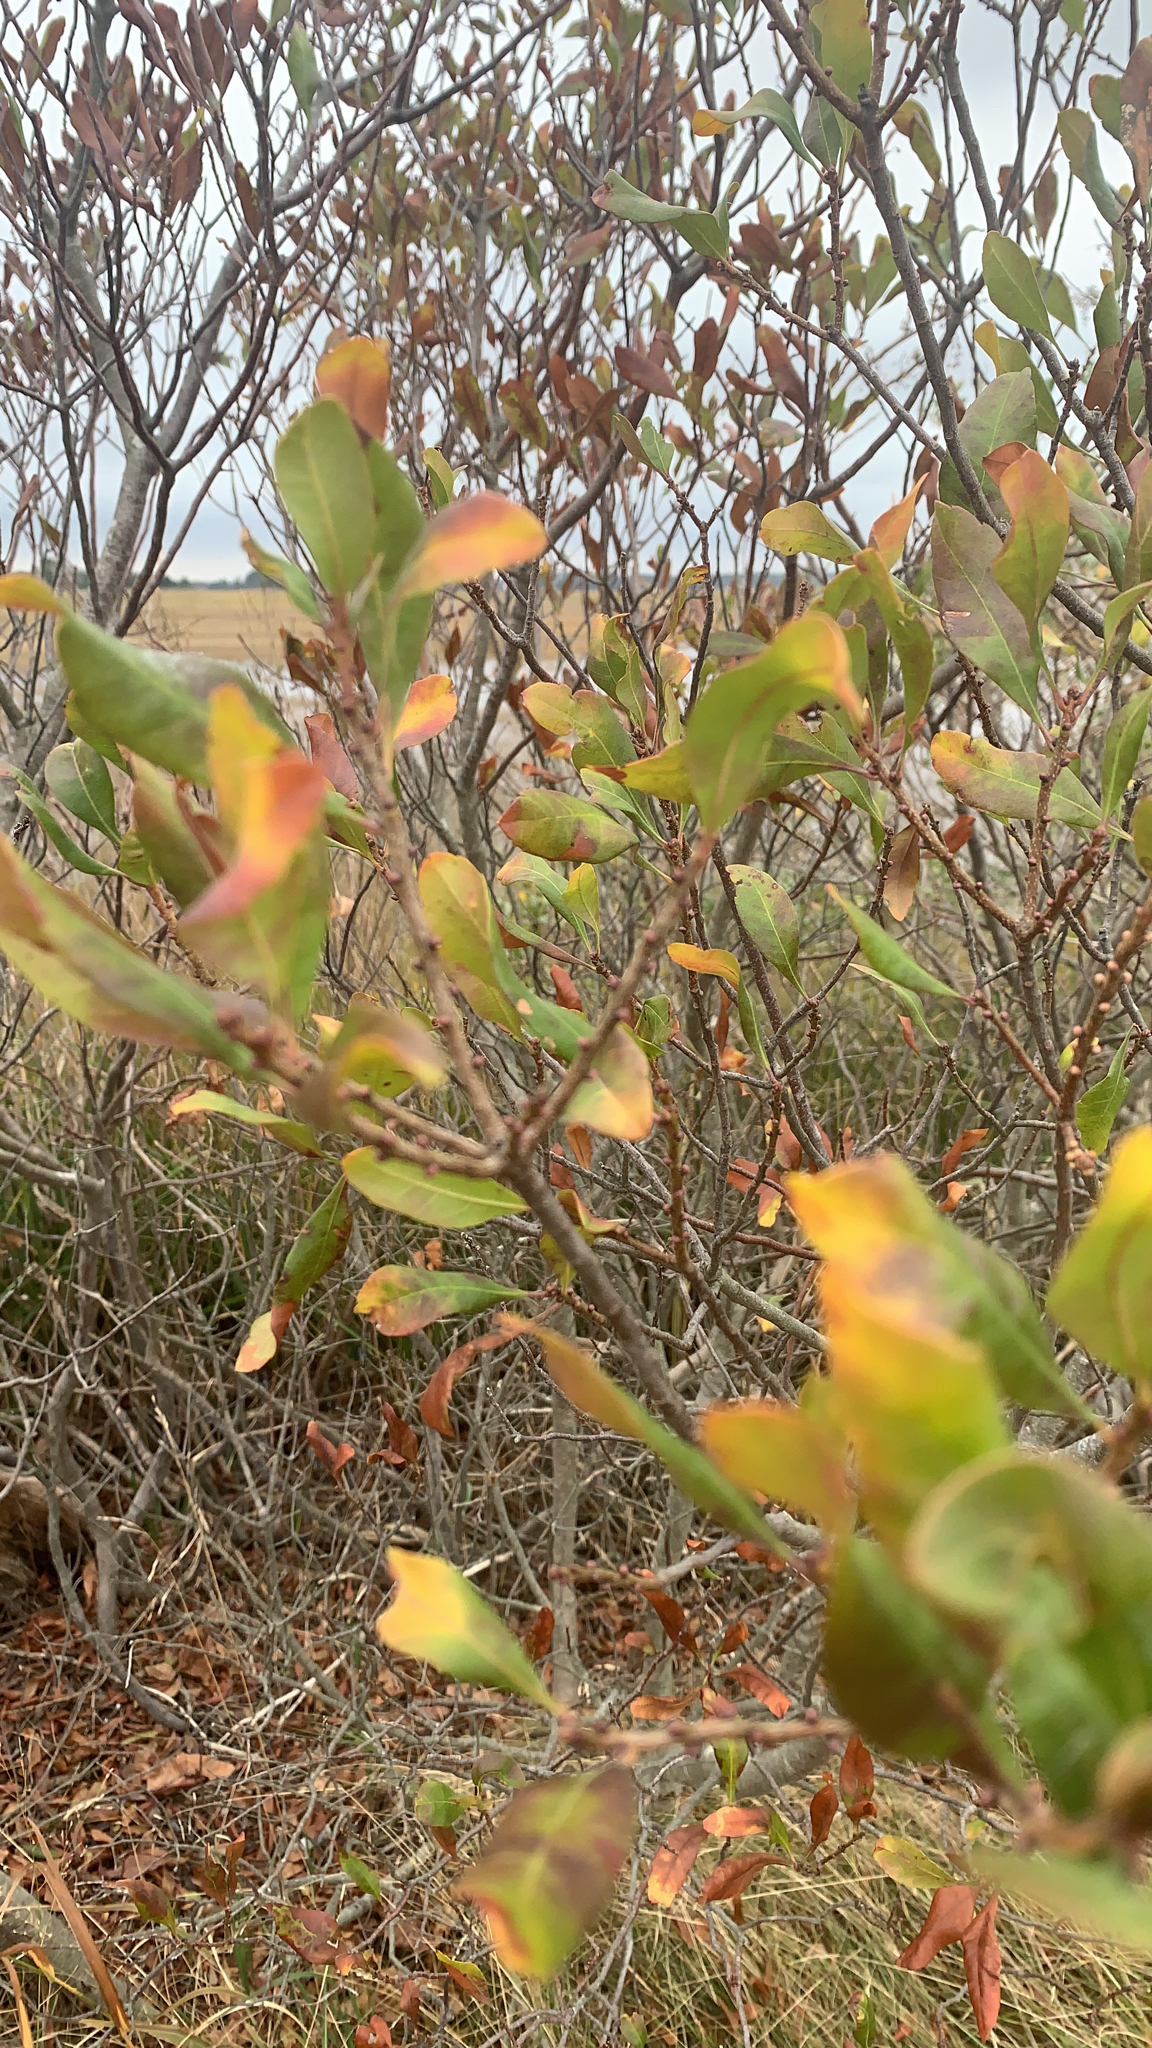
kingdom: Plantae
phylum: Tracheophyta
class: Magnoliopsida
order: Fagales
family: Myricaceae
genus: Morella
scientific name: Morella pensylvanica
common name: Northern bayberry
